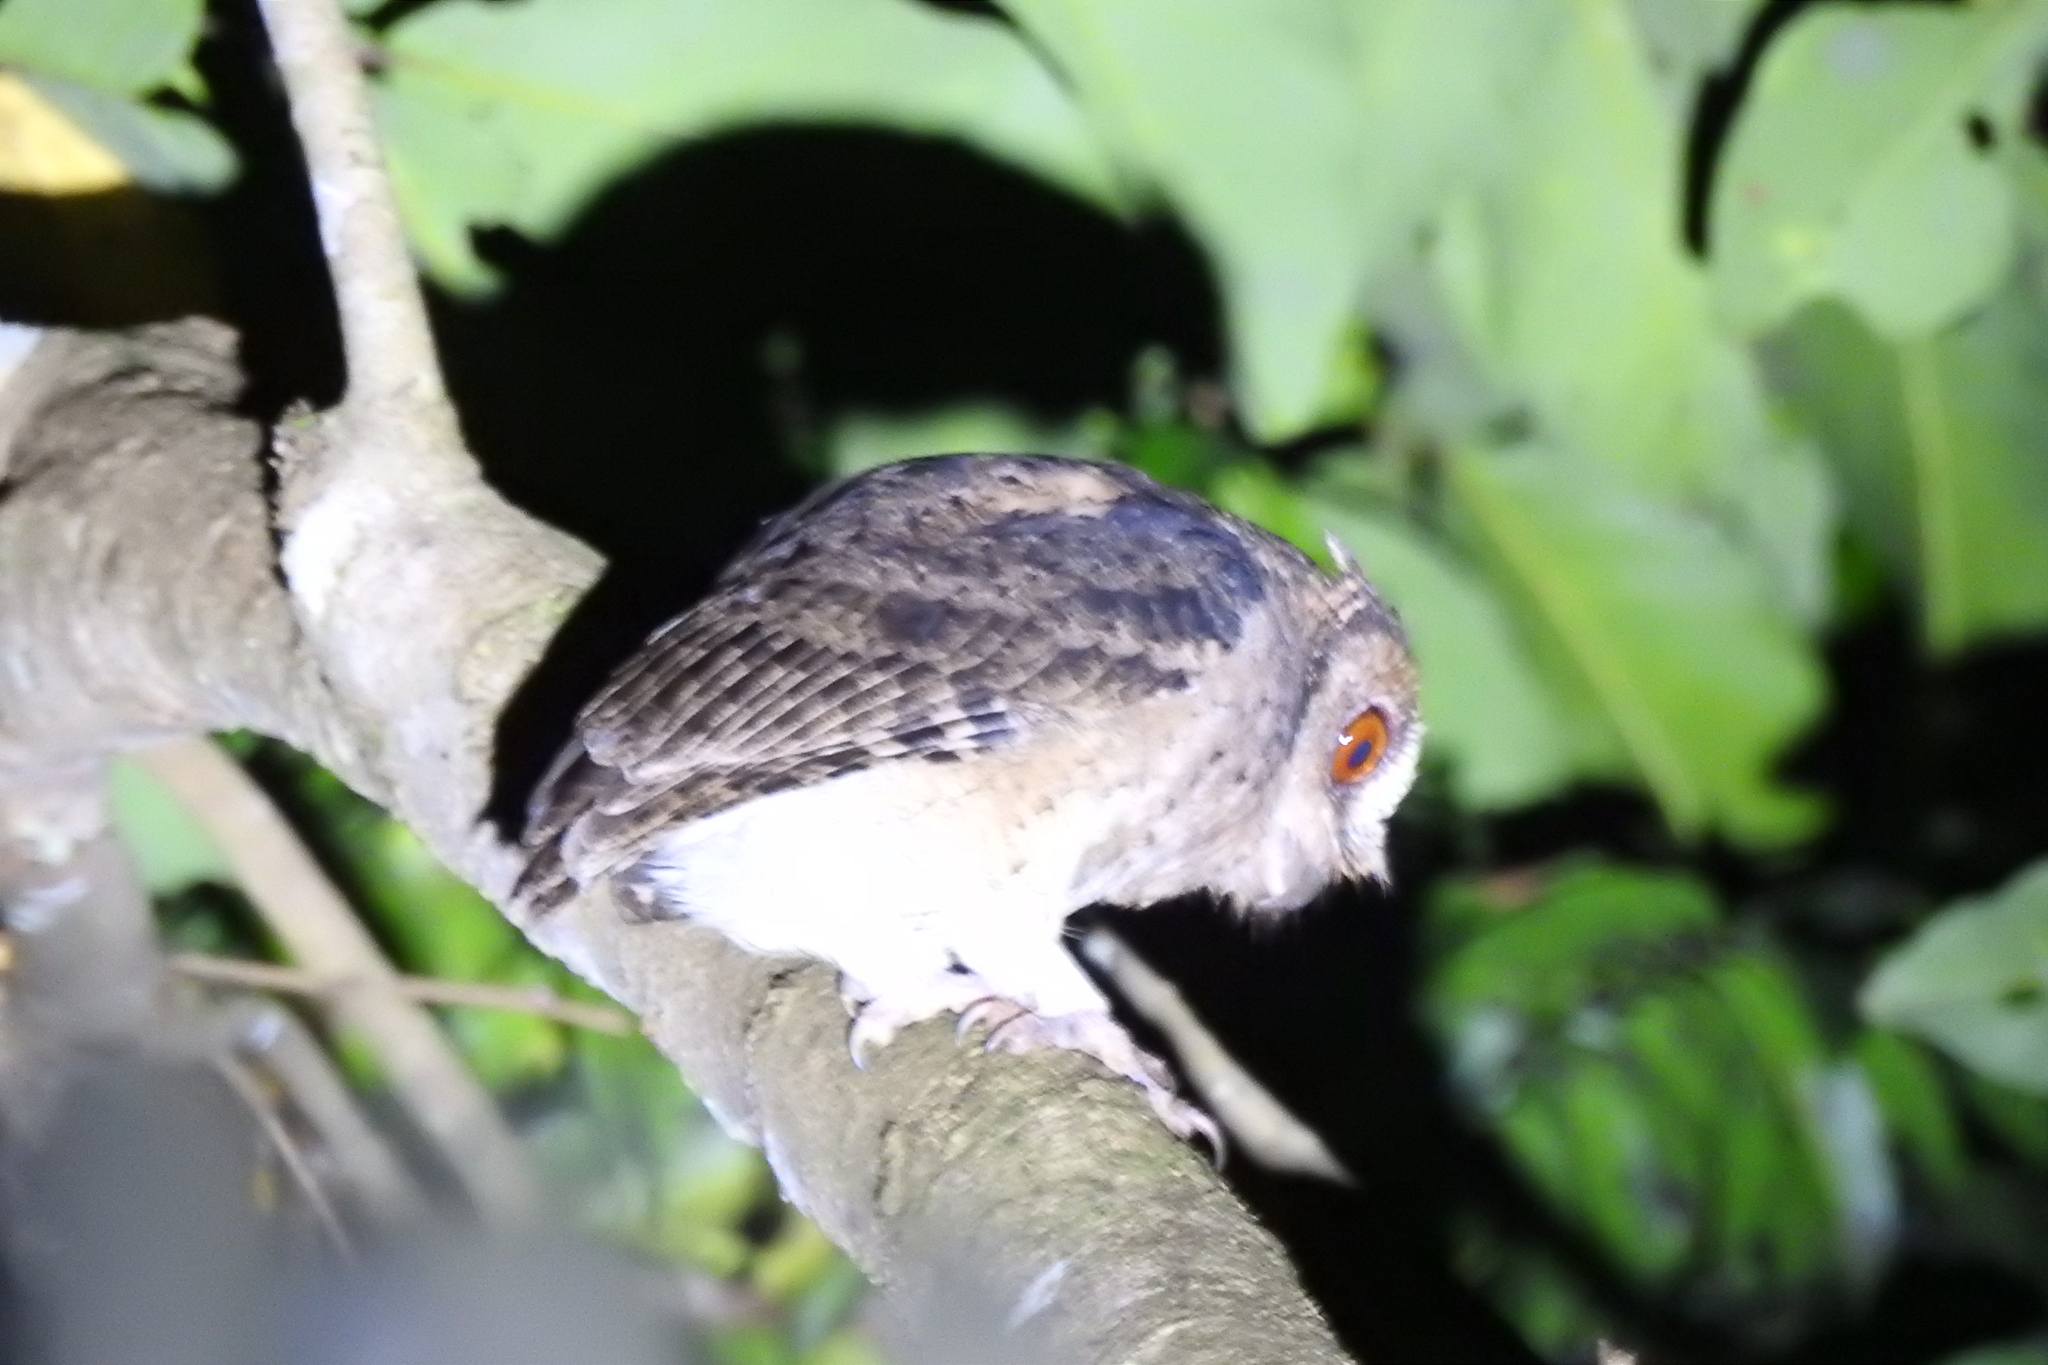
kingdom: Animalia
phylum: Chordata
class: Aves
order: Strigiformes
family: Strigidae
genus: Otus
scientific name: Otus lempiji
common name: Sunda scops-owl
